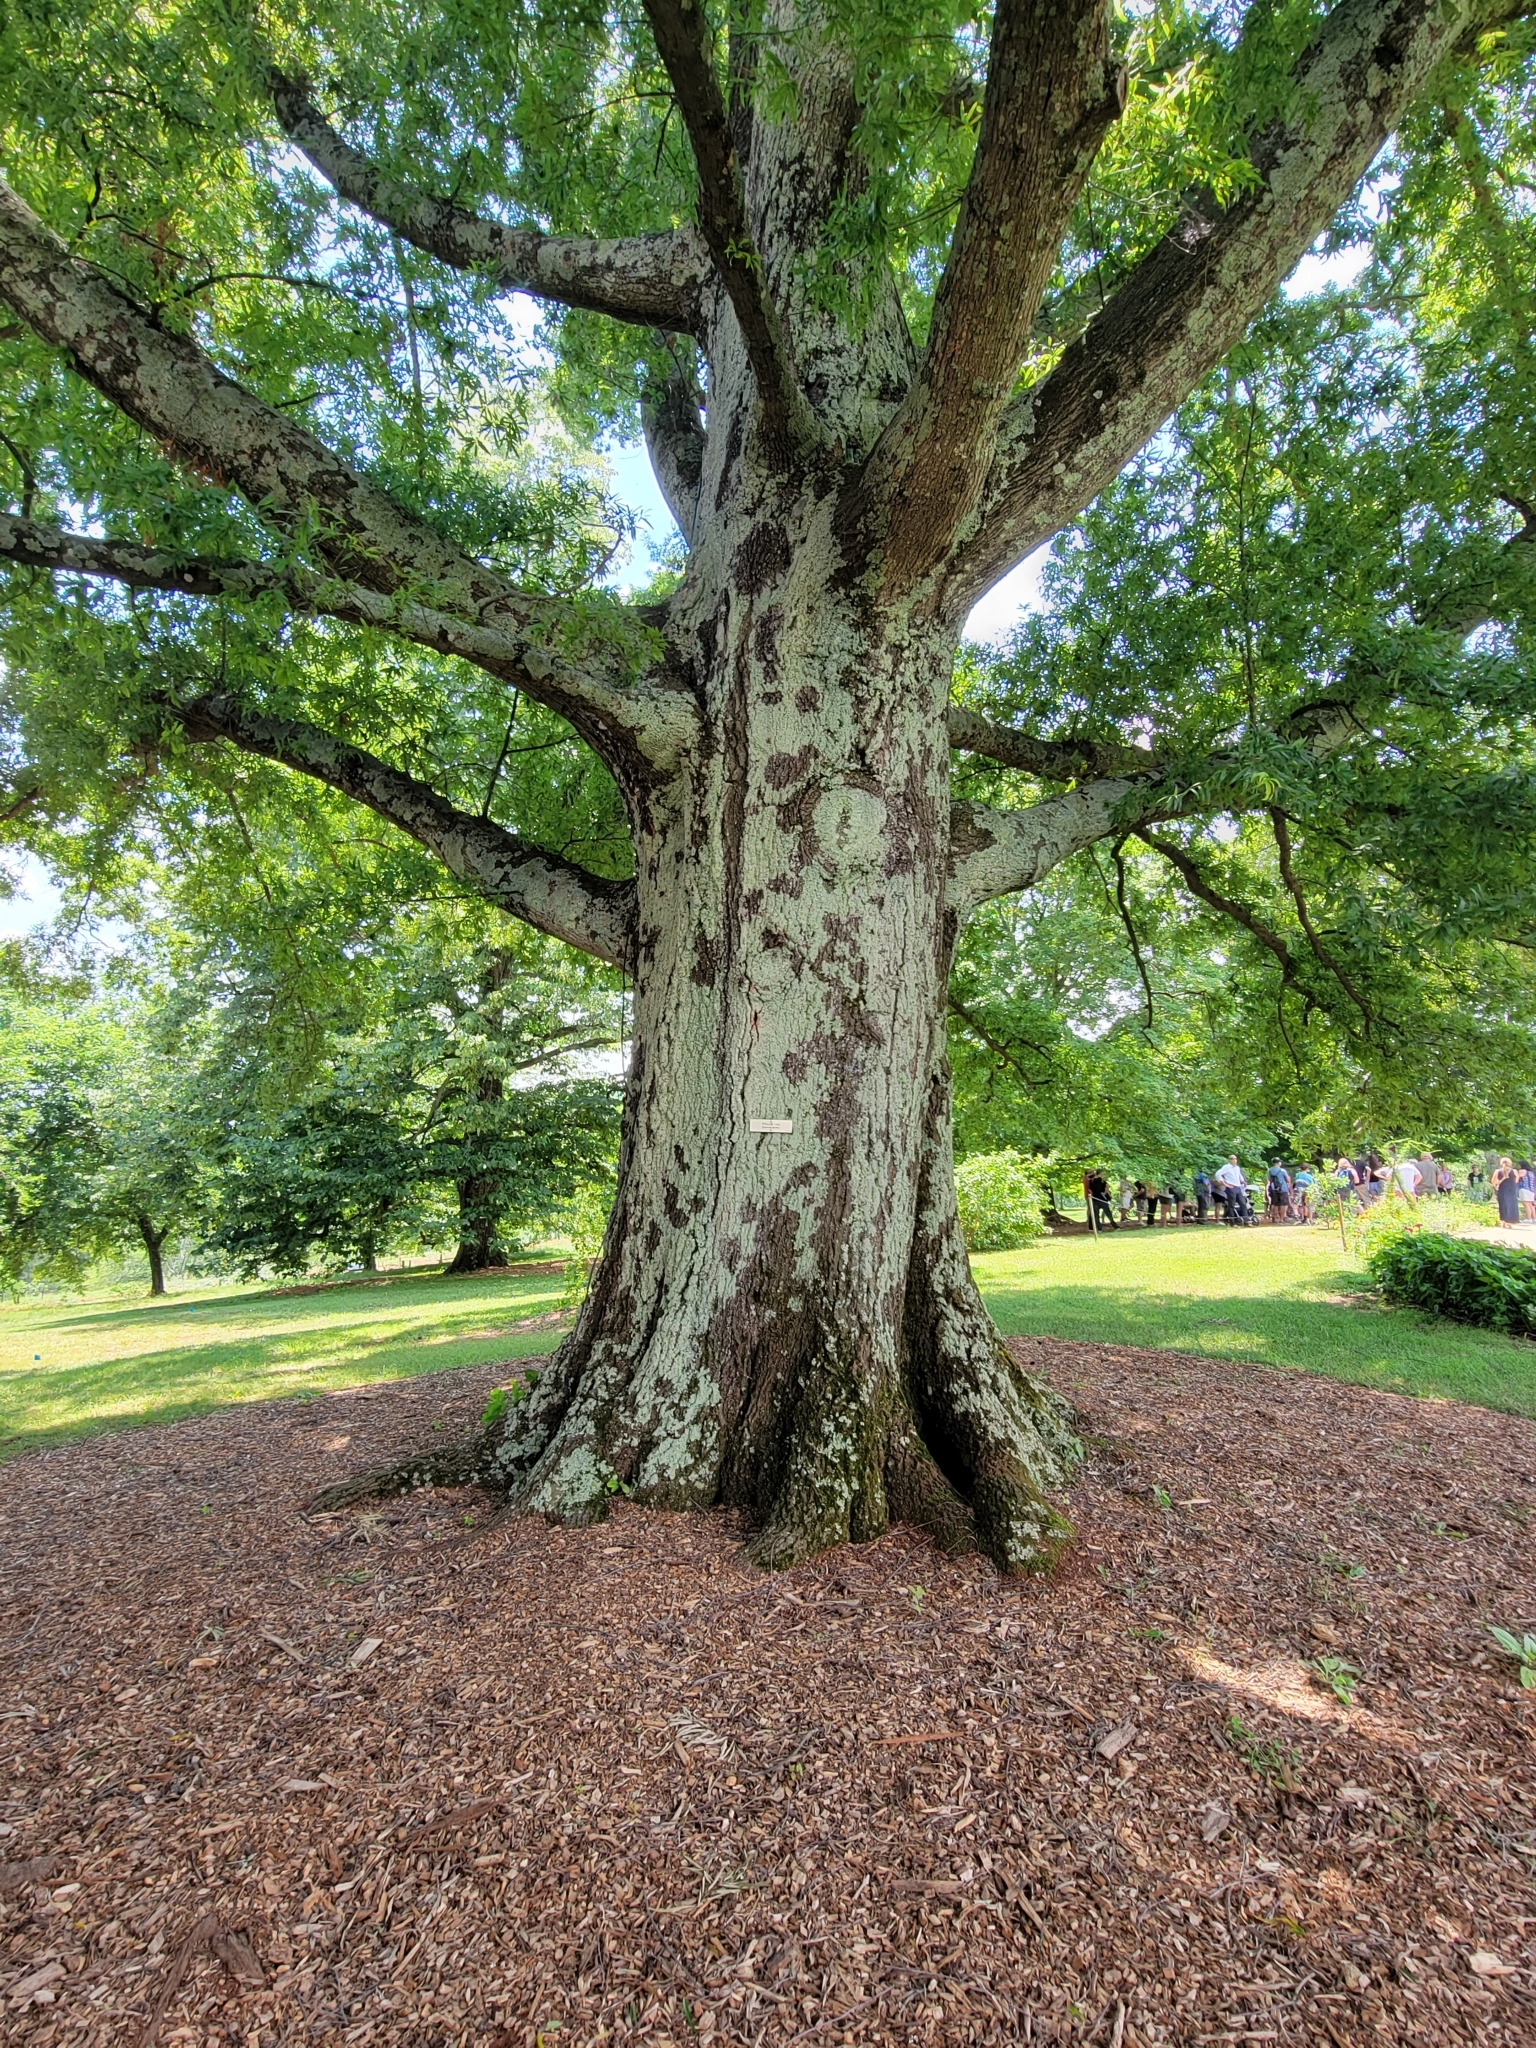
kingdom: Plantae
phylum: Tracheophyta
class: Magnoliopsida
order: Fagales
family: Fagaceae
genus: Quercus
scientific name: Quercus phellos
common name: Willow oak
